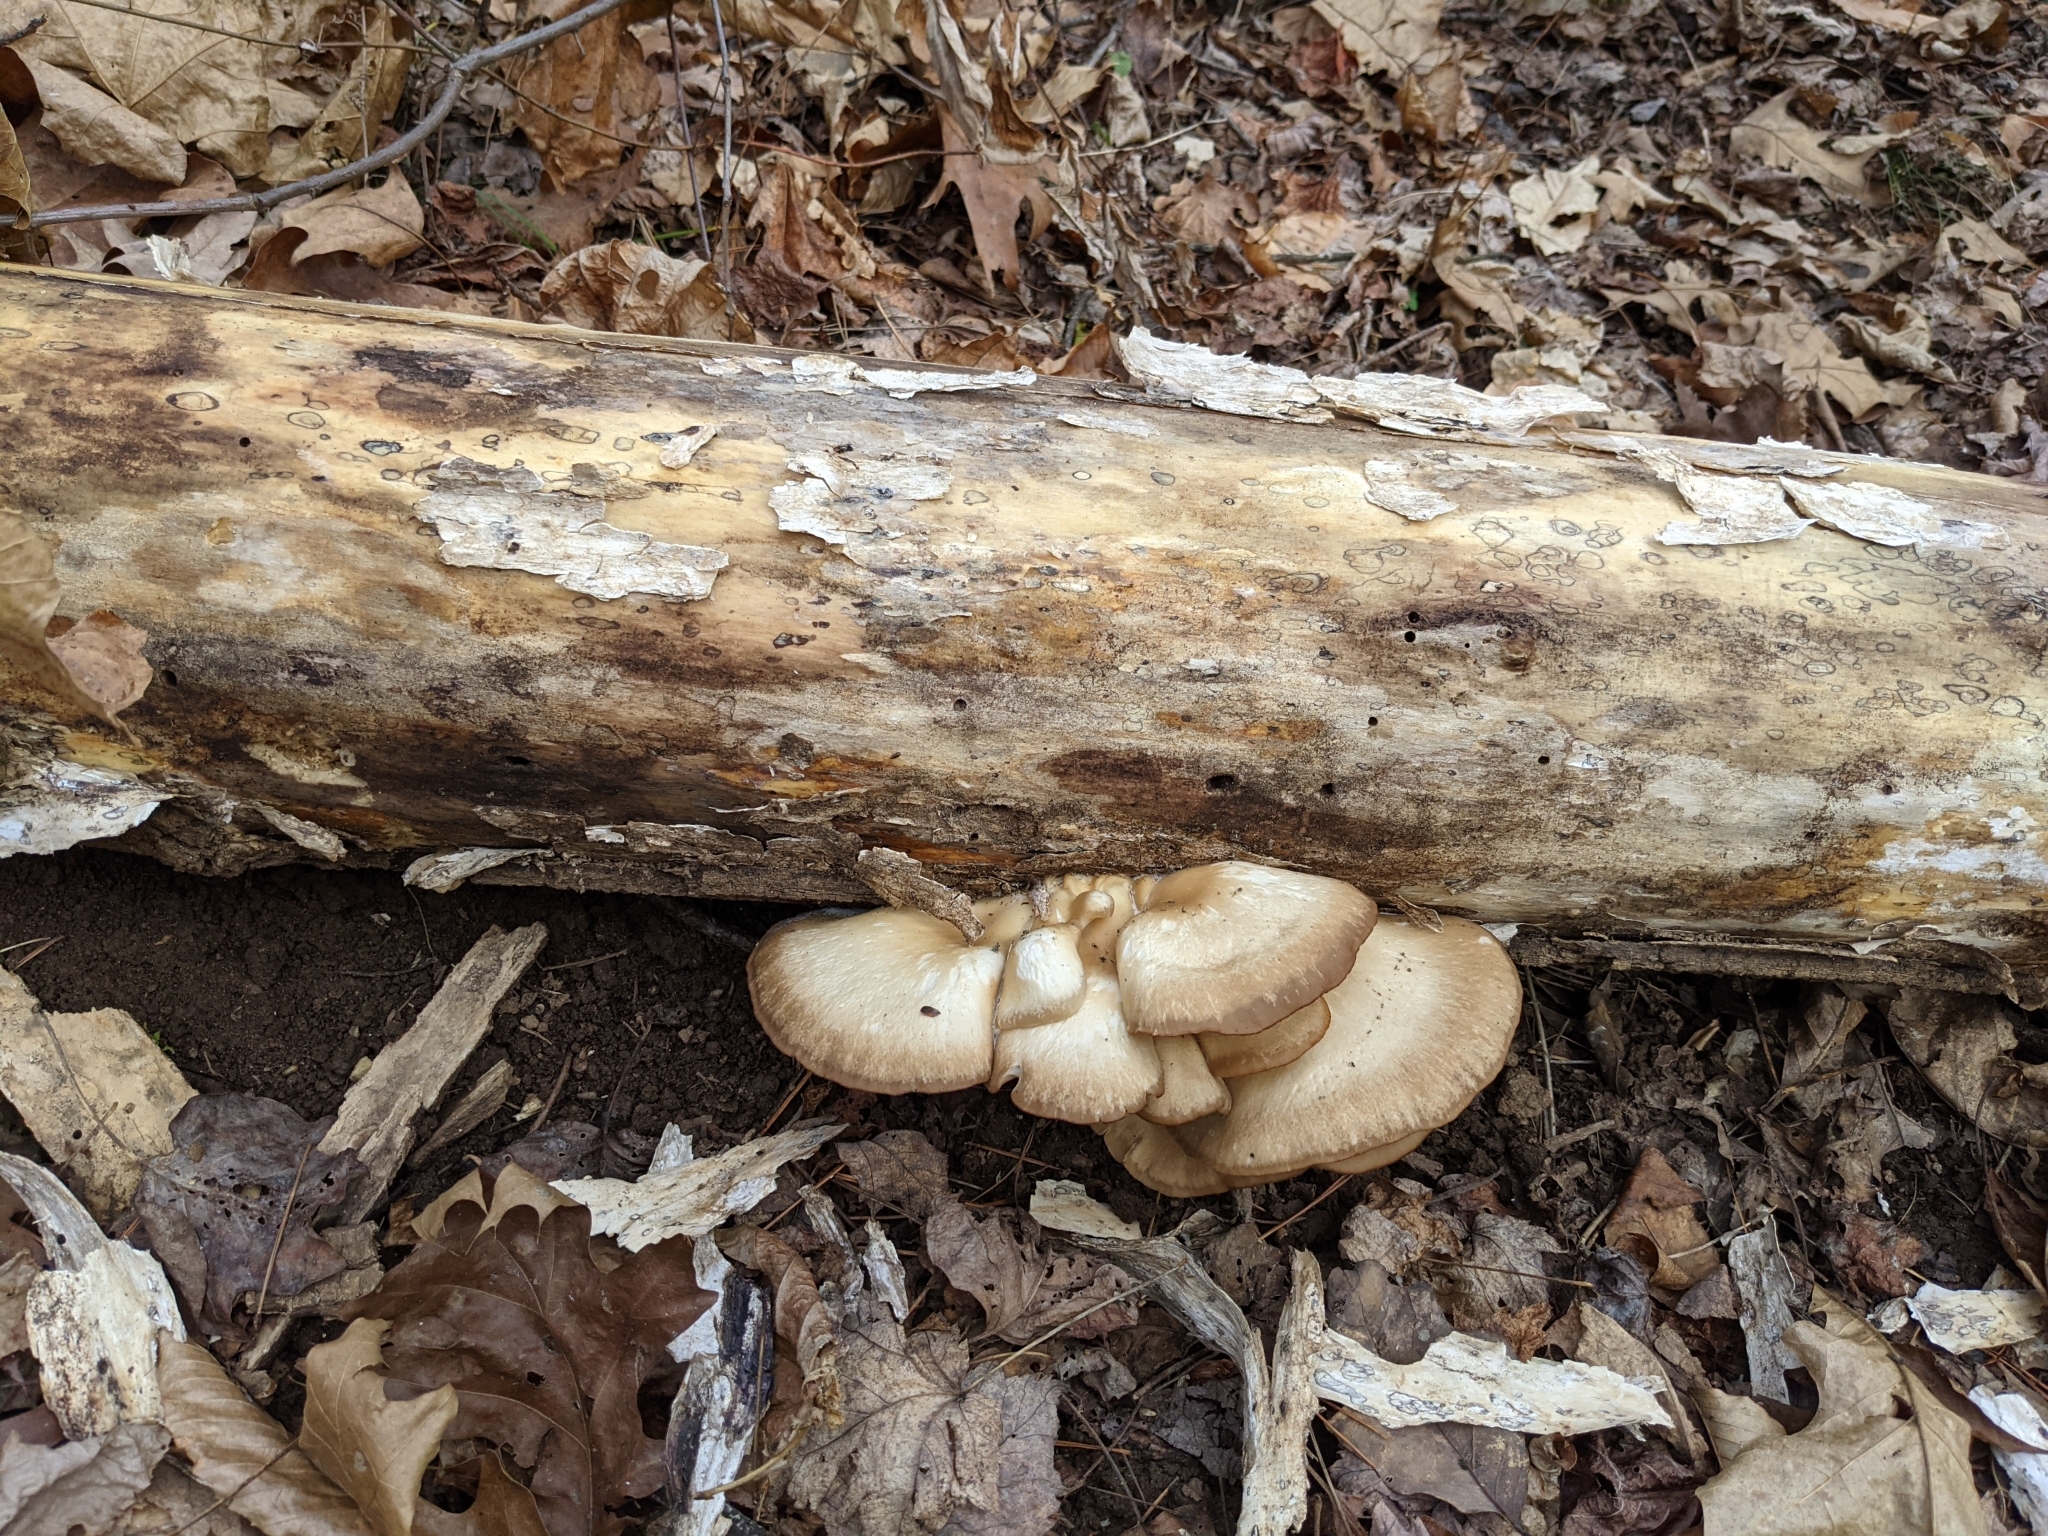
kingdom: Fungi
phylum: Basidiomycota
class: Agaricomycetes
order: Agaricales
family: Pleurotaceae
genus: Pleurotus
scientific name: Pleurotus ostreatus
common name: Oyster mushroom
